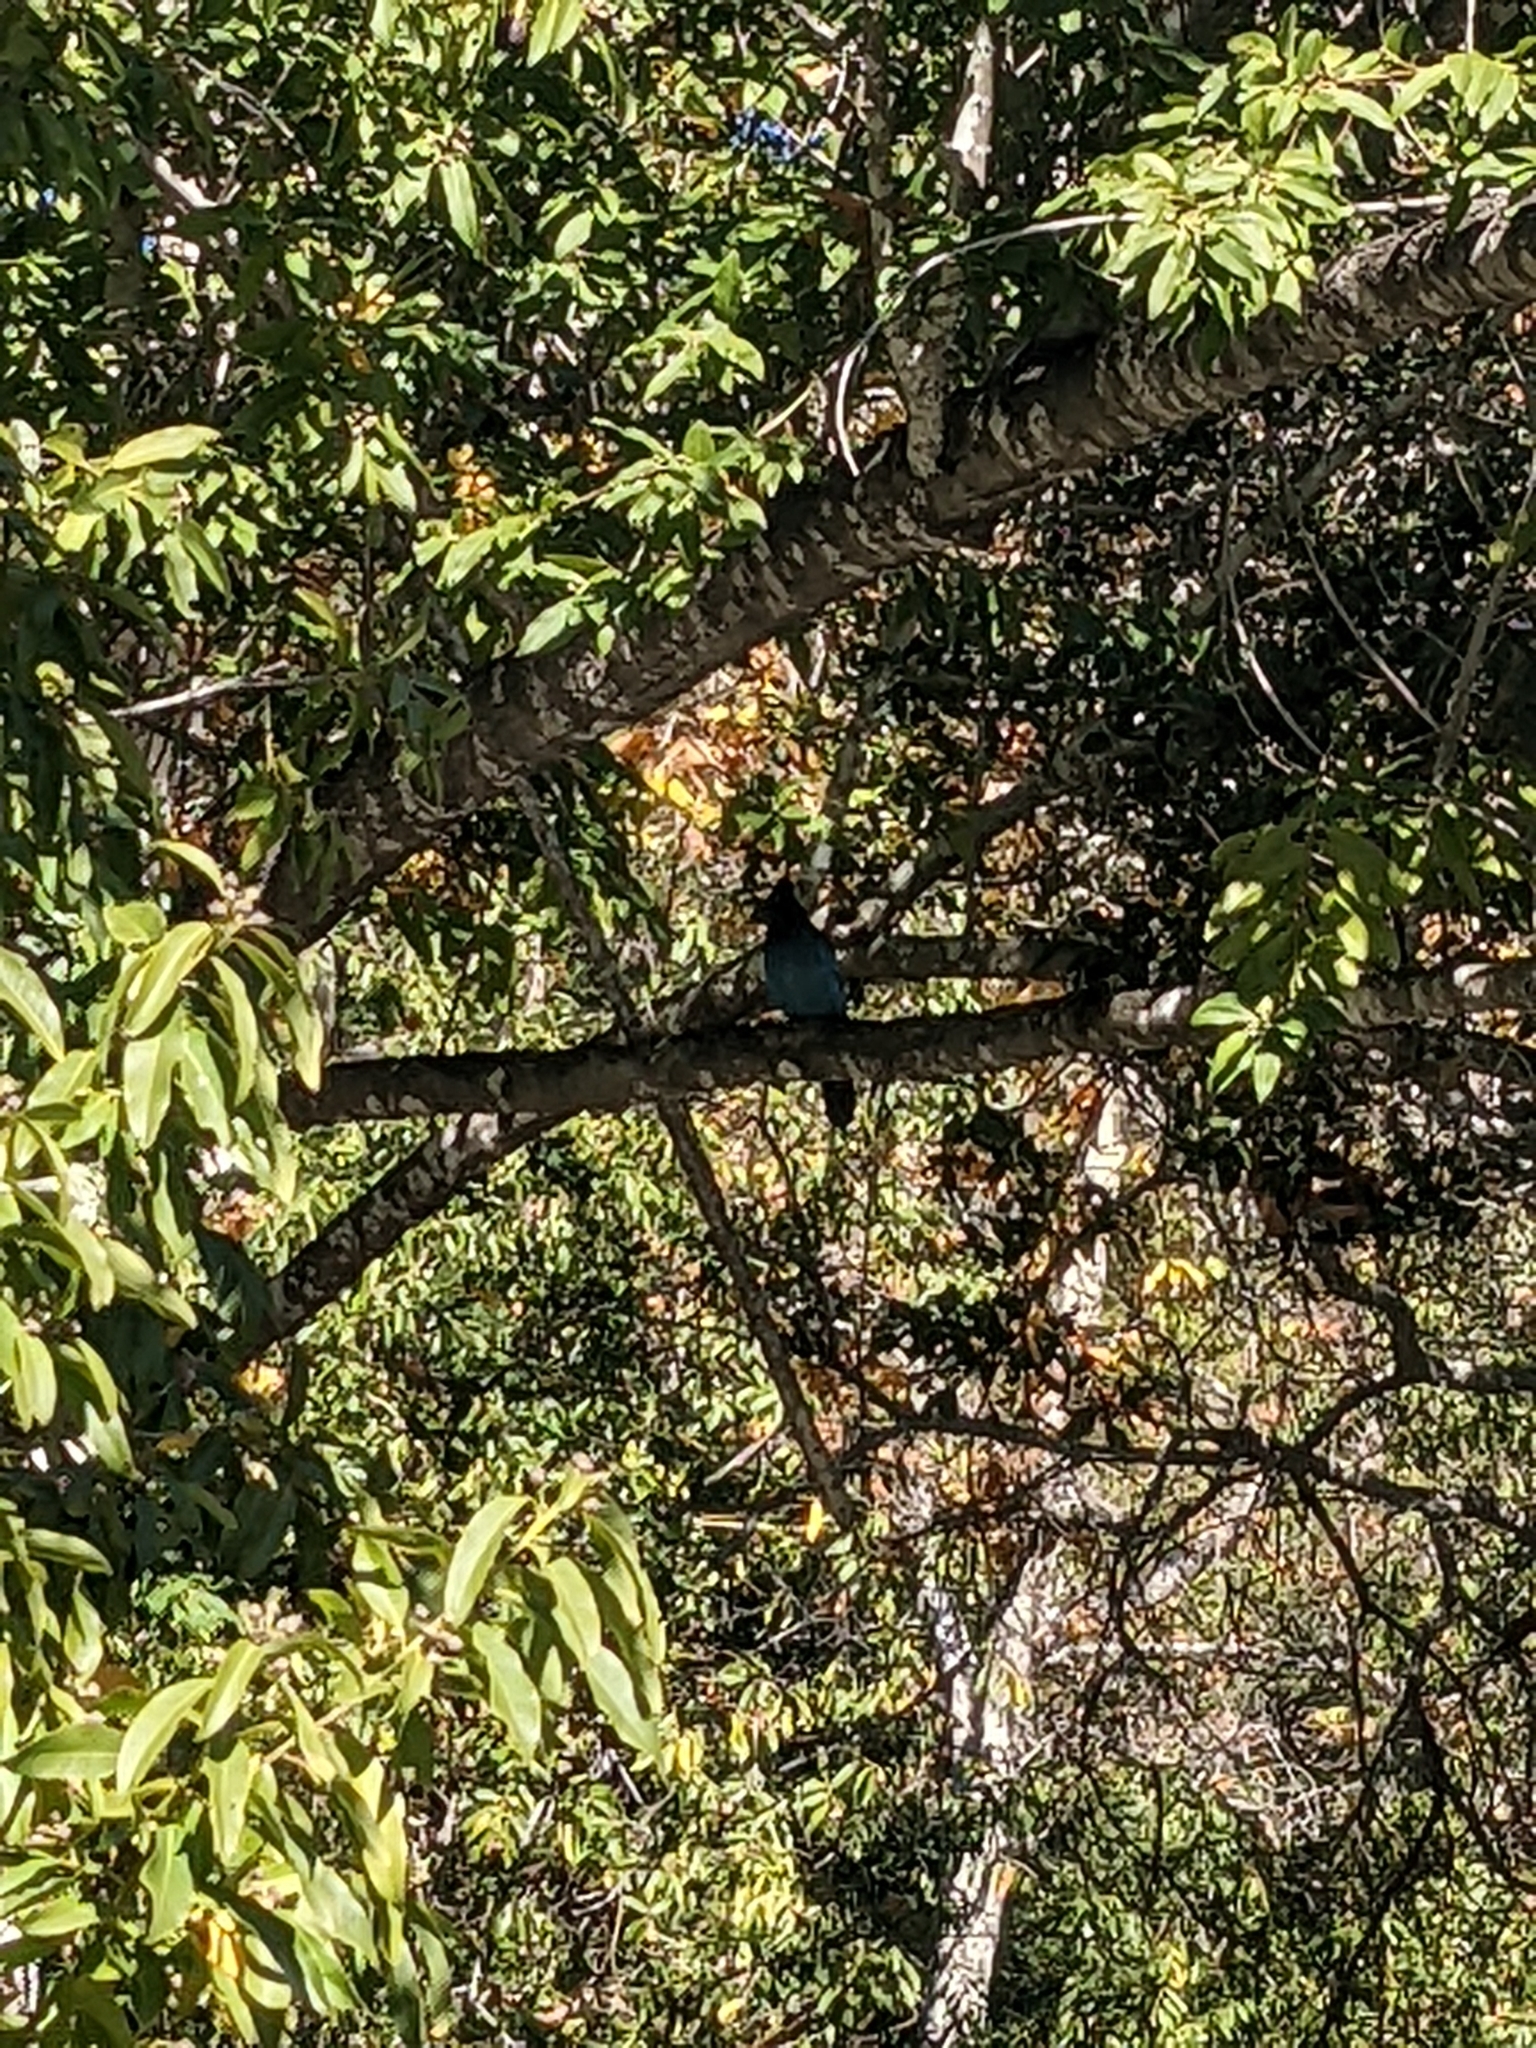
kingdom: Animalia
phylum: Chordata
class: Aves
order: Passeriformes
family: Corvidae
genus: Cyanocitta
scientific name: Cyanocitta stelleri
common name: Steller's jay
